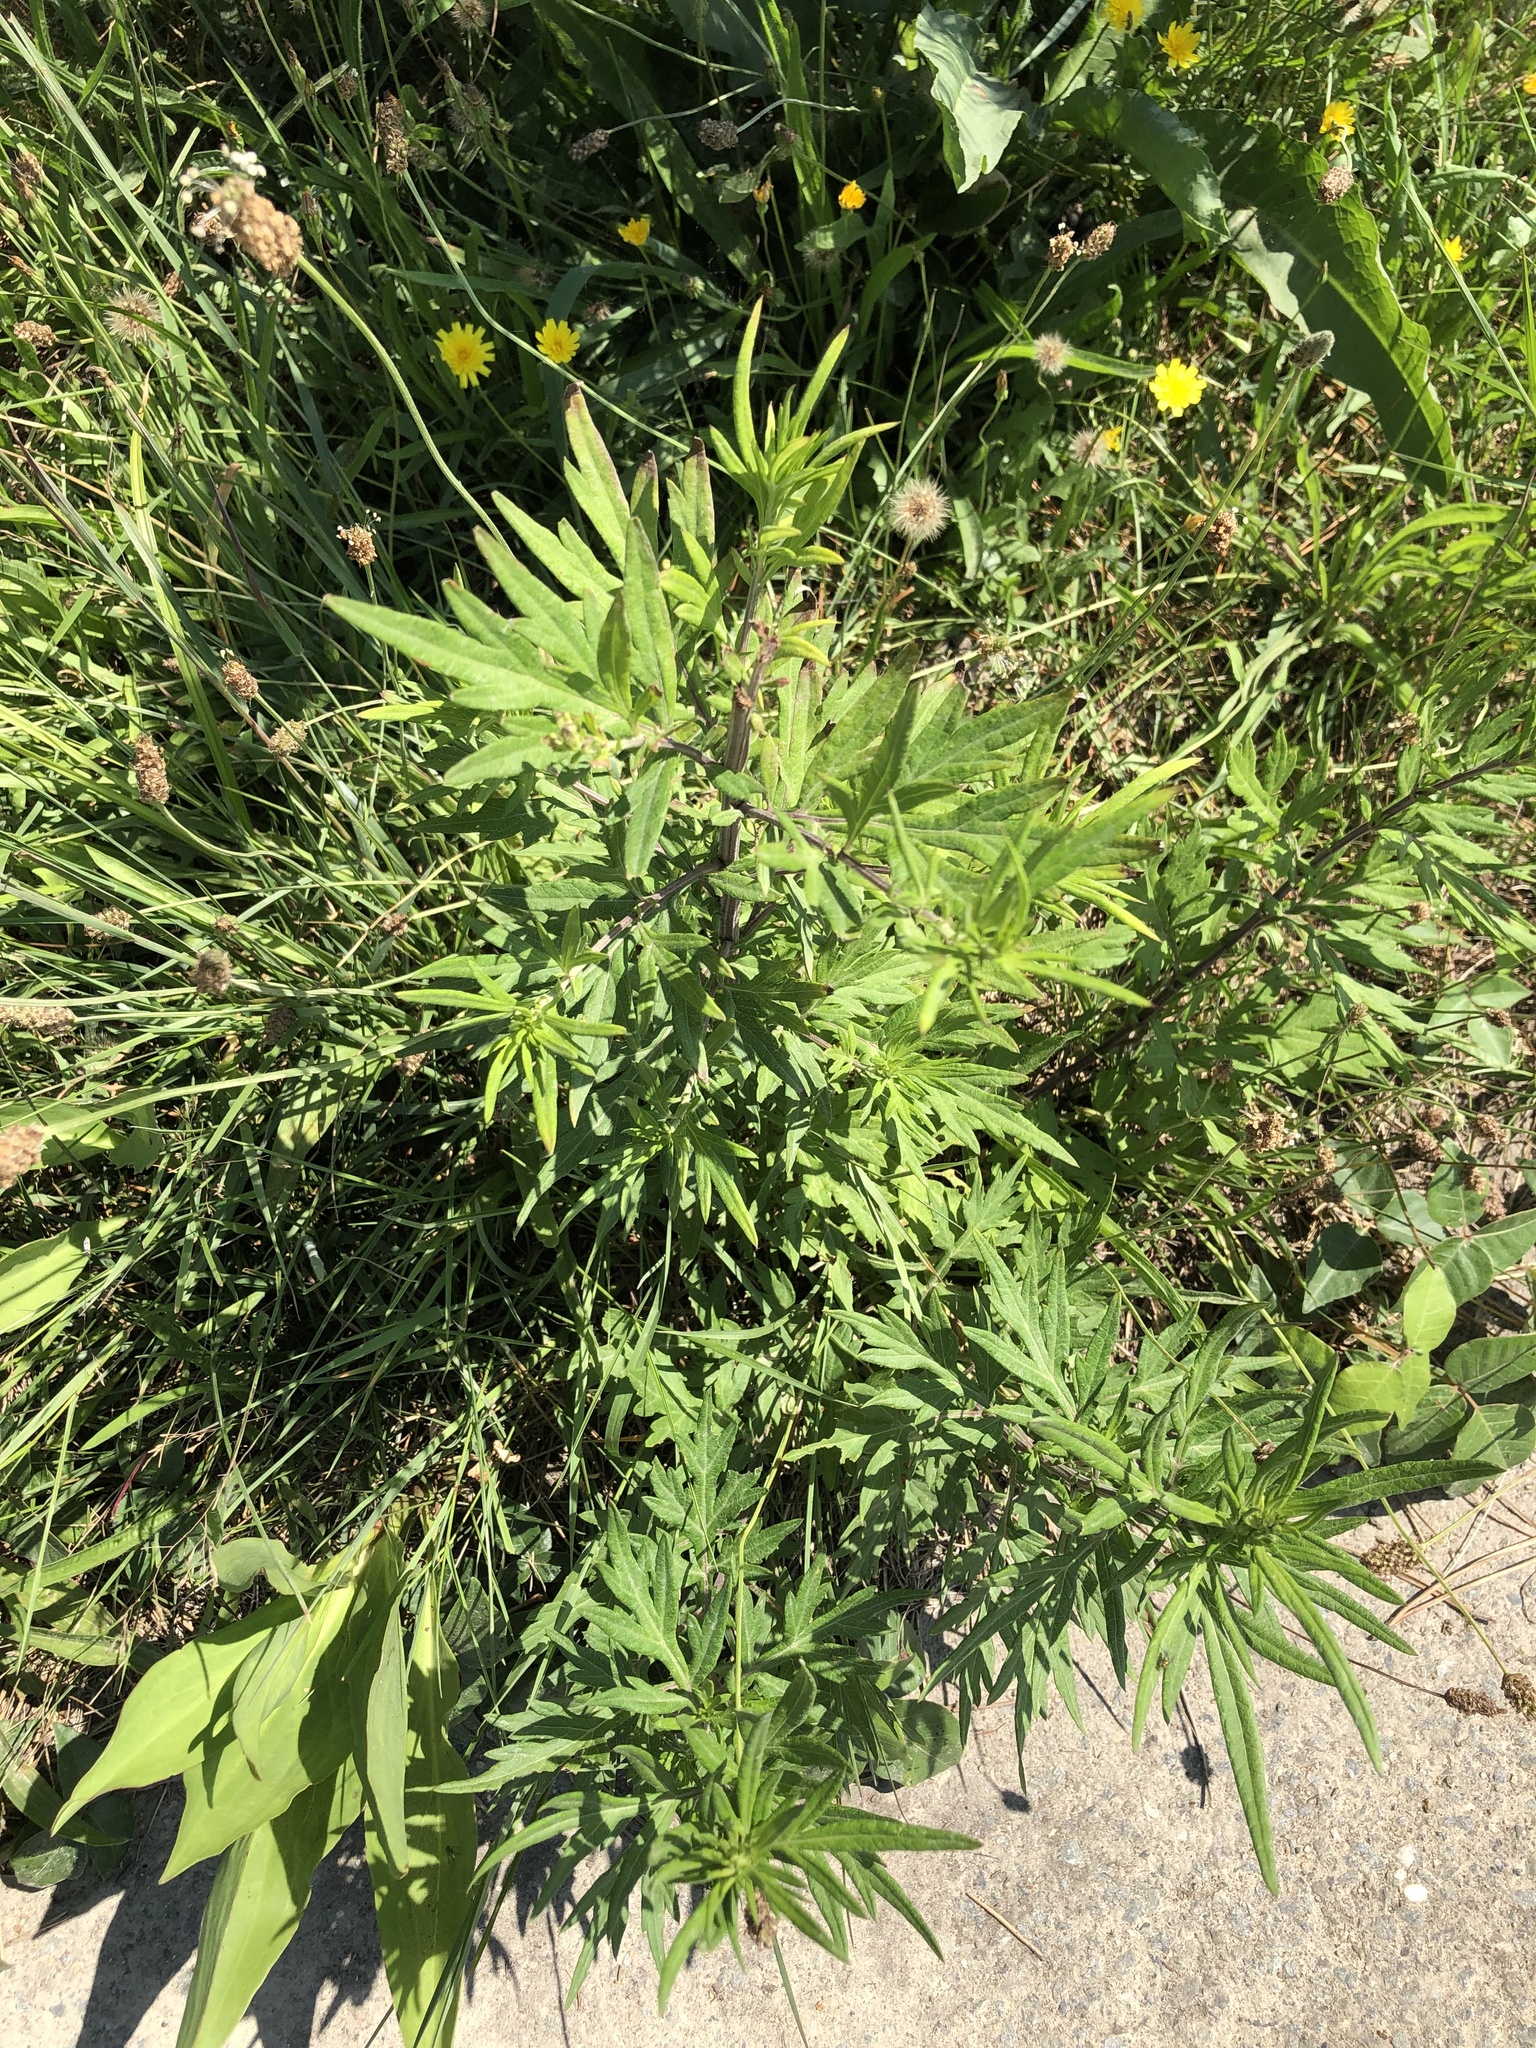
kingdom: Plantae
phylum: Tracheophyta
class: Magnoliopsida
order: Asterales
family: Asteraceae
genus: Artemisia
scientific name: Artemisia vulgaris
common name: Mugwort
